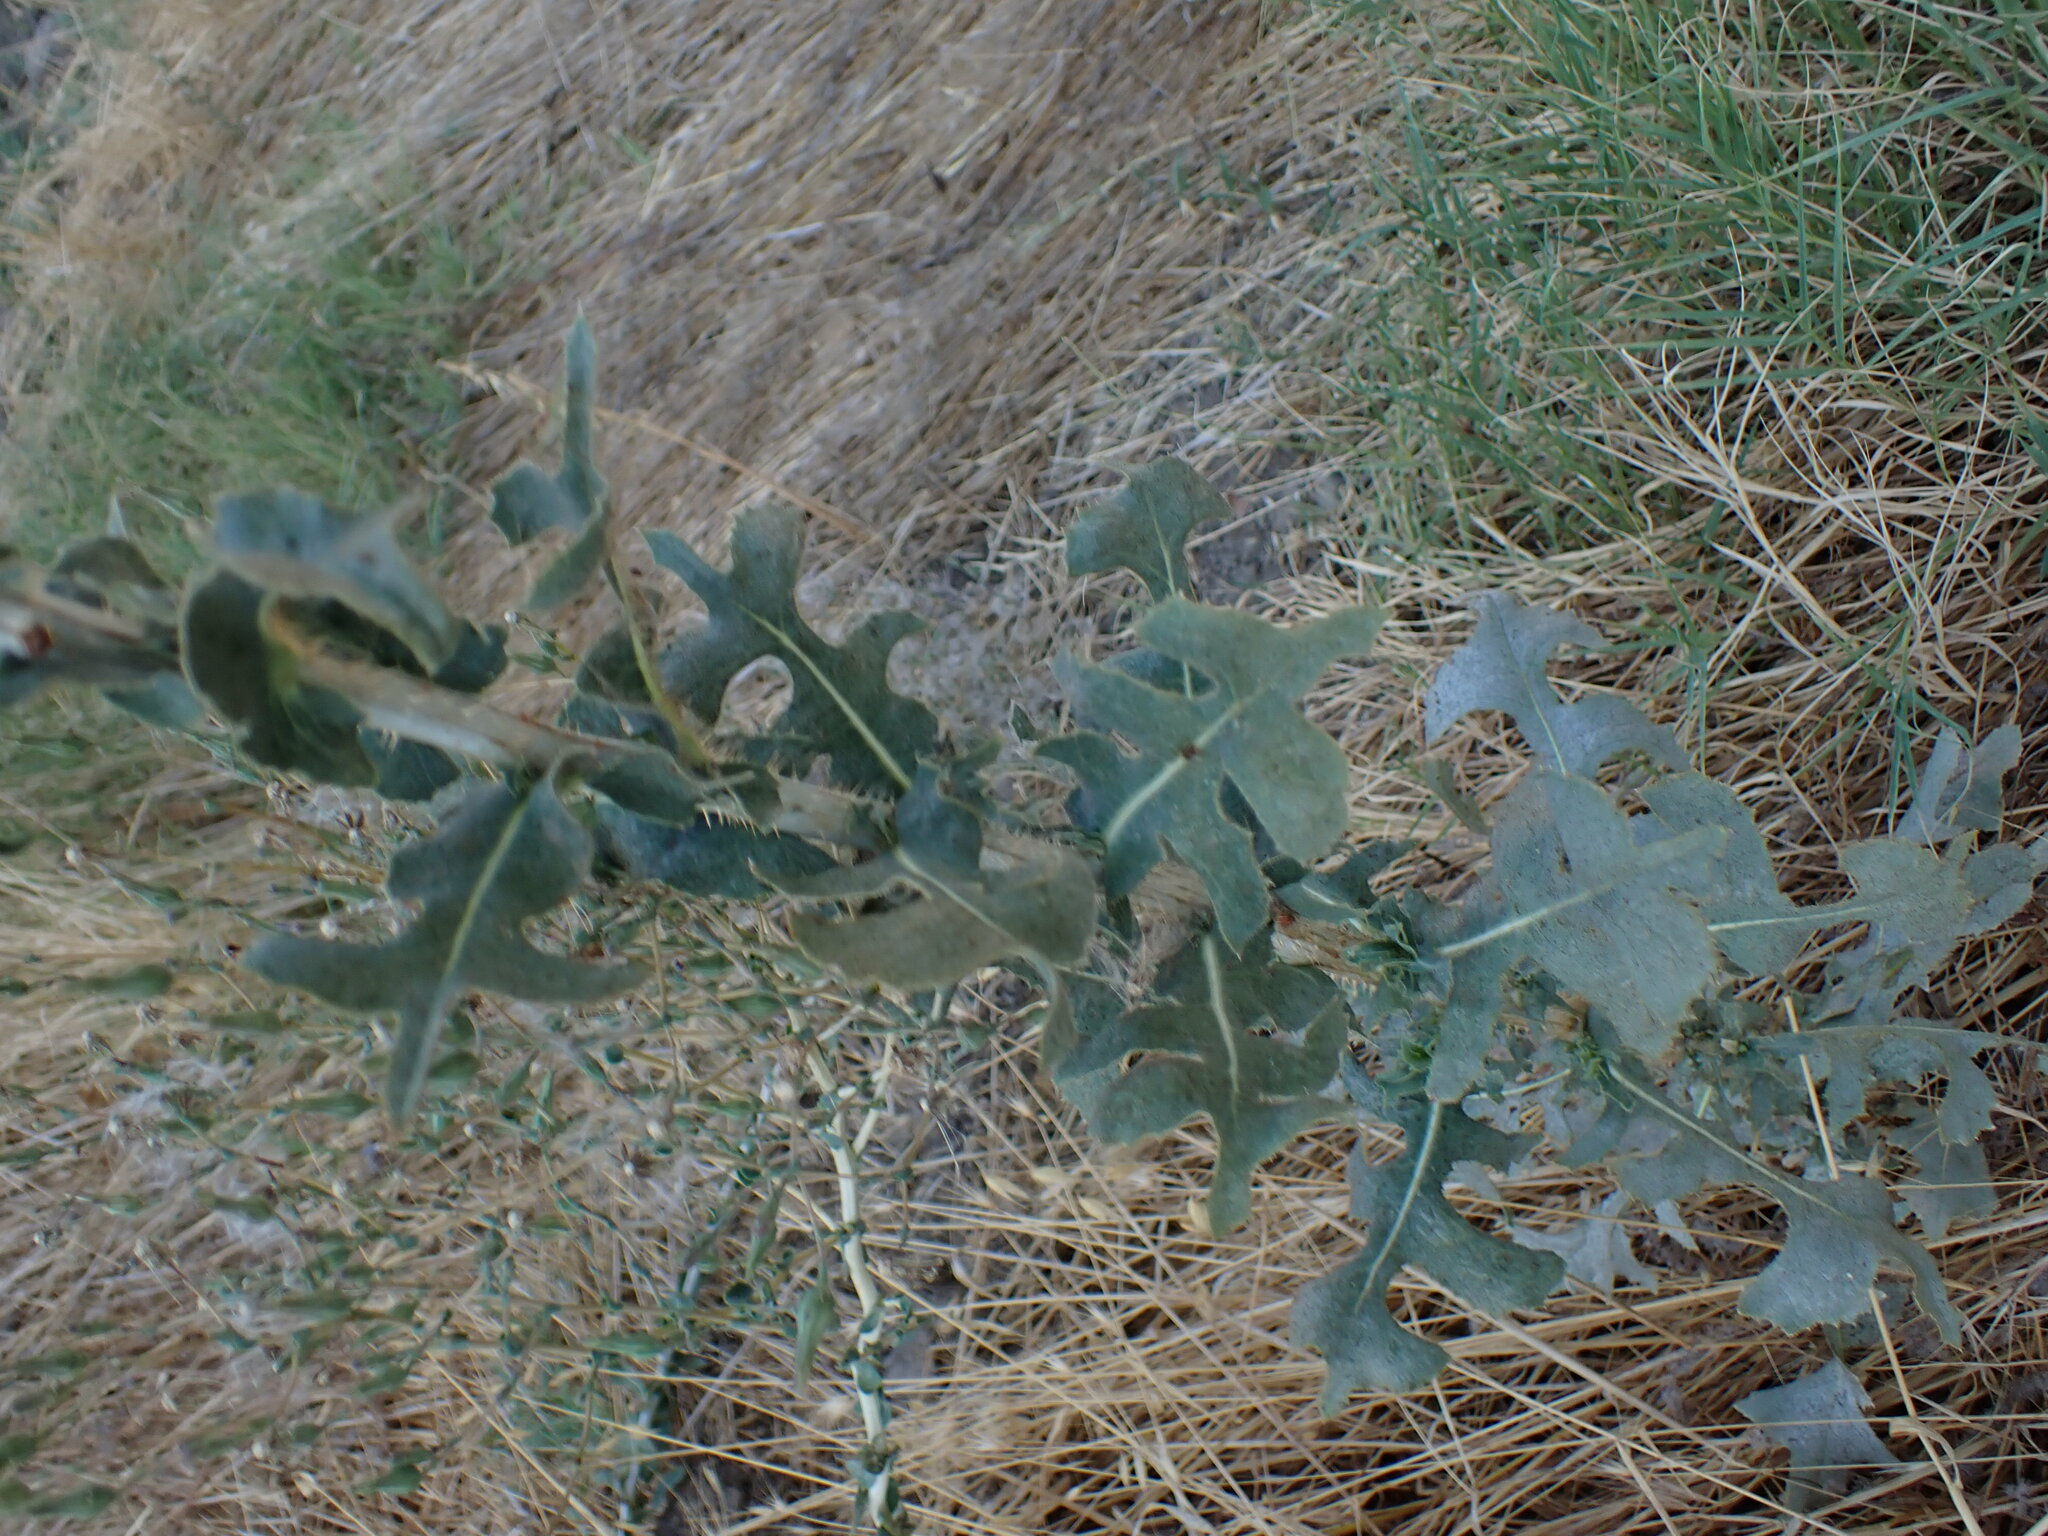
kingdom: Plantae
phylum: Tracheophyta
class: Magnoliopsida
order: Asterales
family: Asteraceae
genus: Lactuca
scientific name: Lactuca serriola
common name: Prickly lettuce
